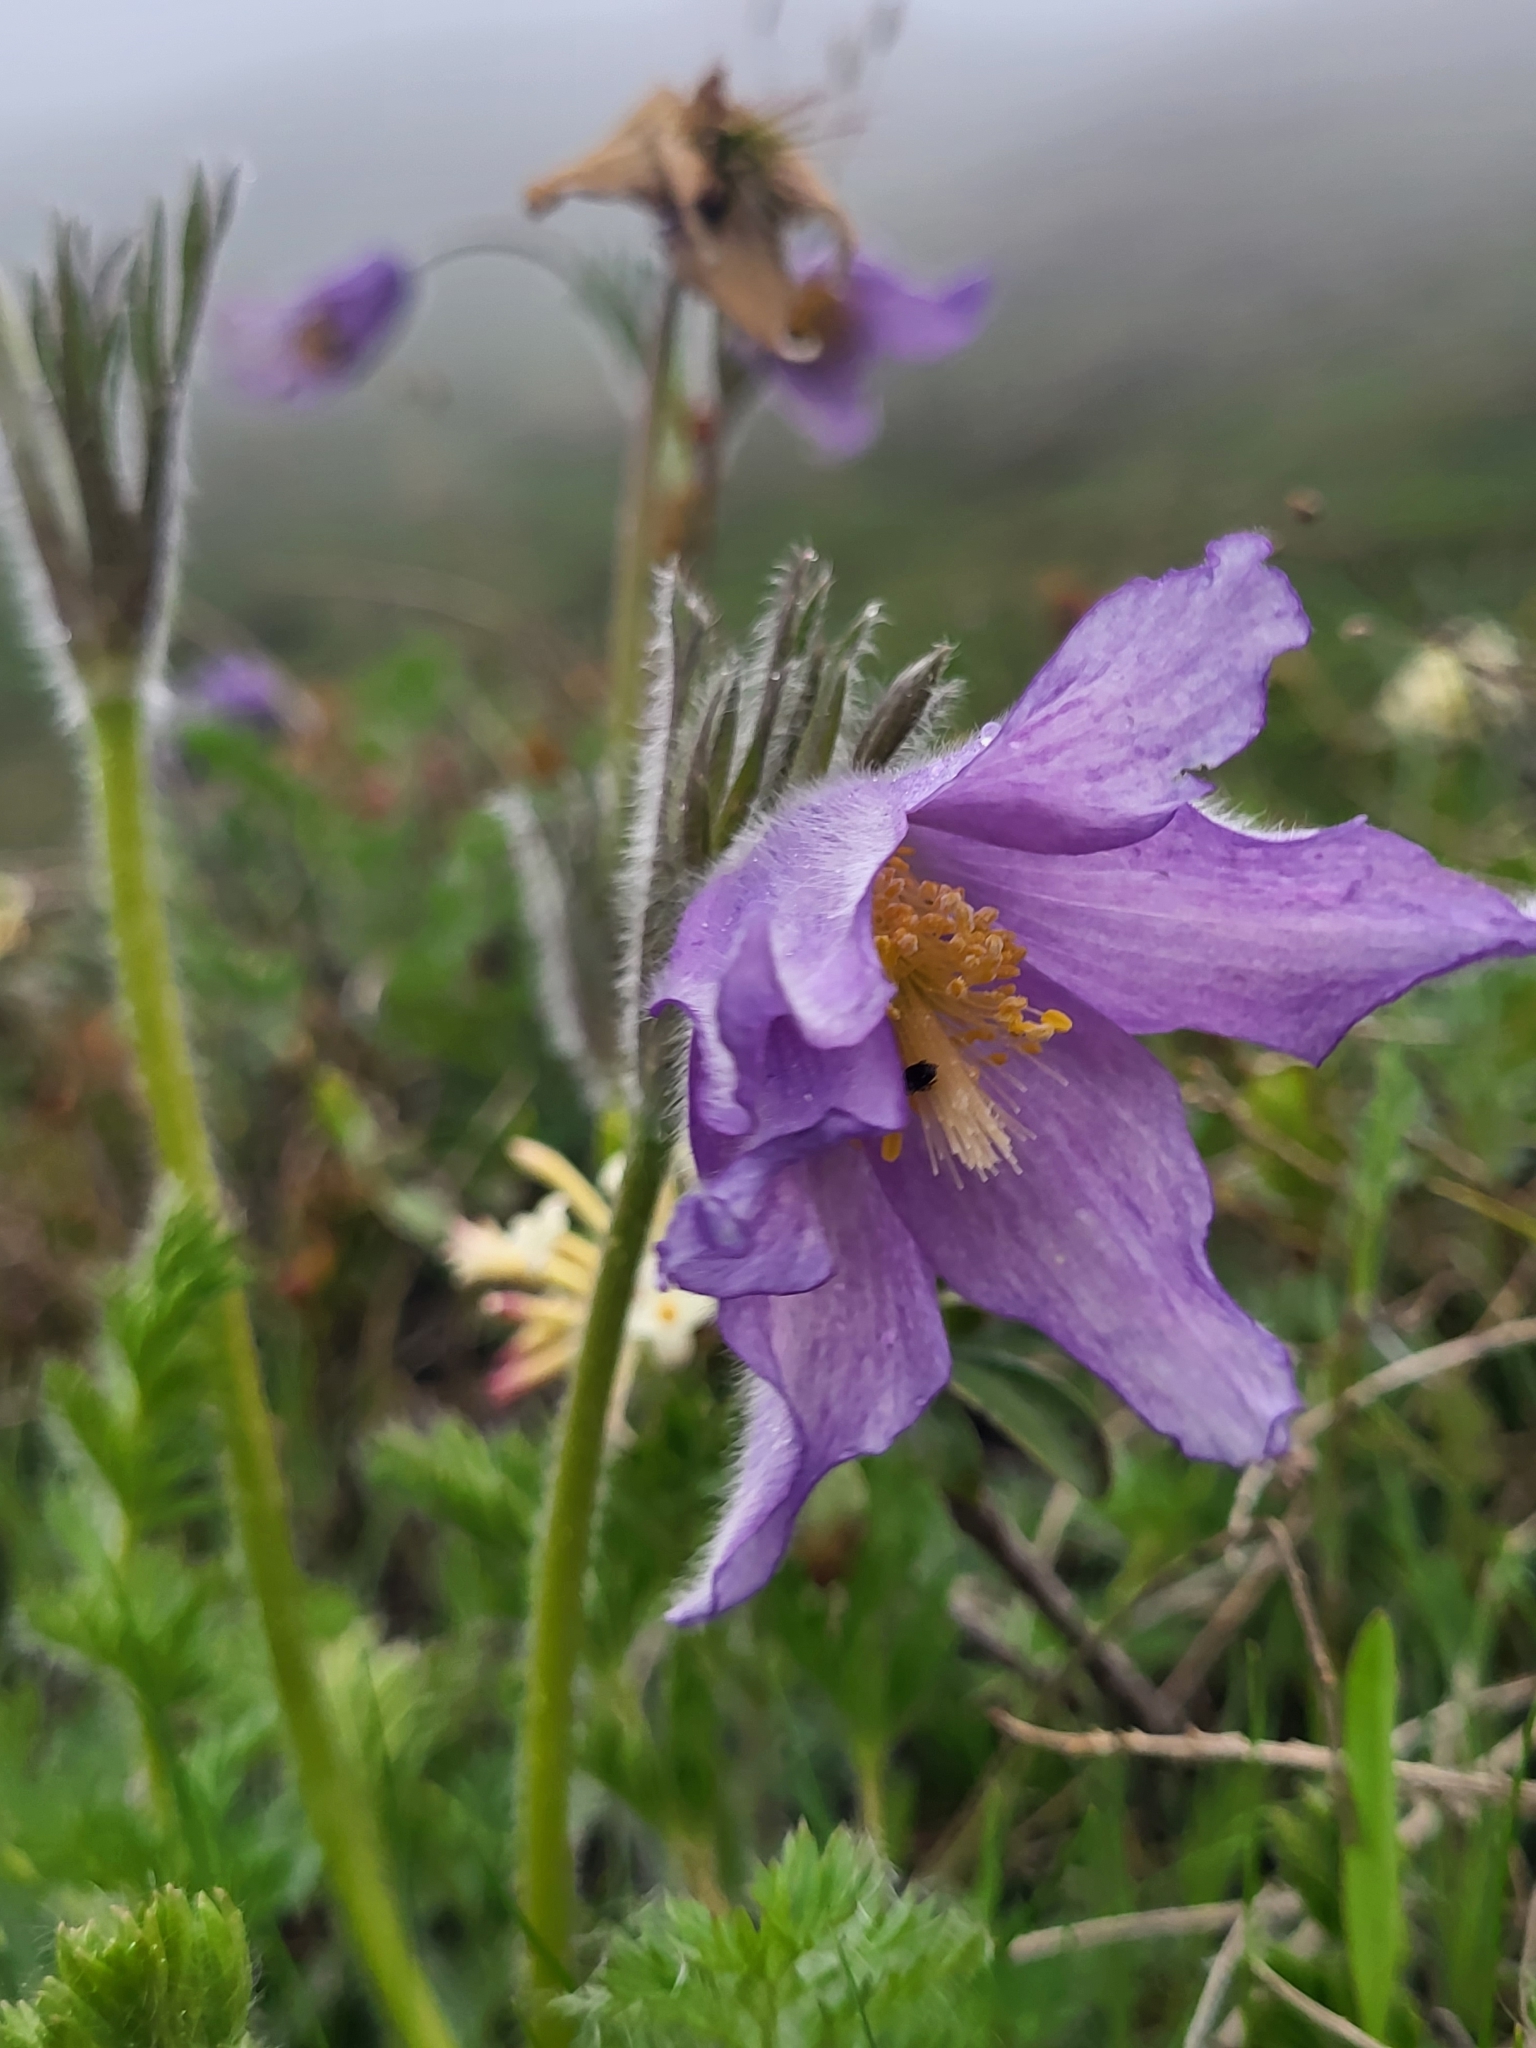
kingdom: Plantae
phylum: Tracheophyta
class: Magnoliopsida
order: Ranunculales
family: Ranunculaceae
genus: Pulsatilla
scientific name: Pulsatilla violacea
